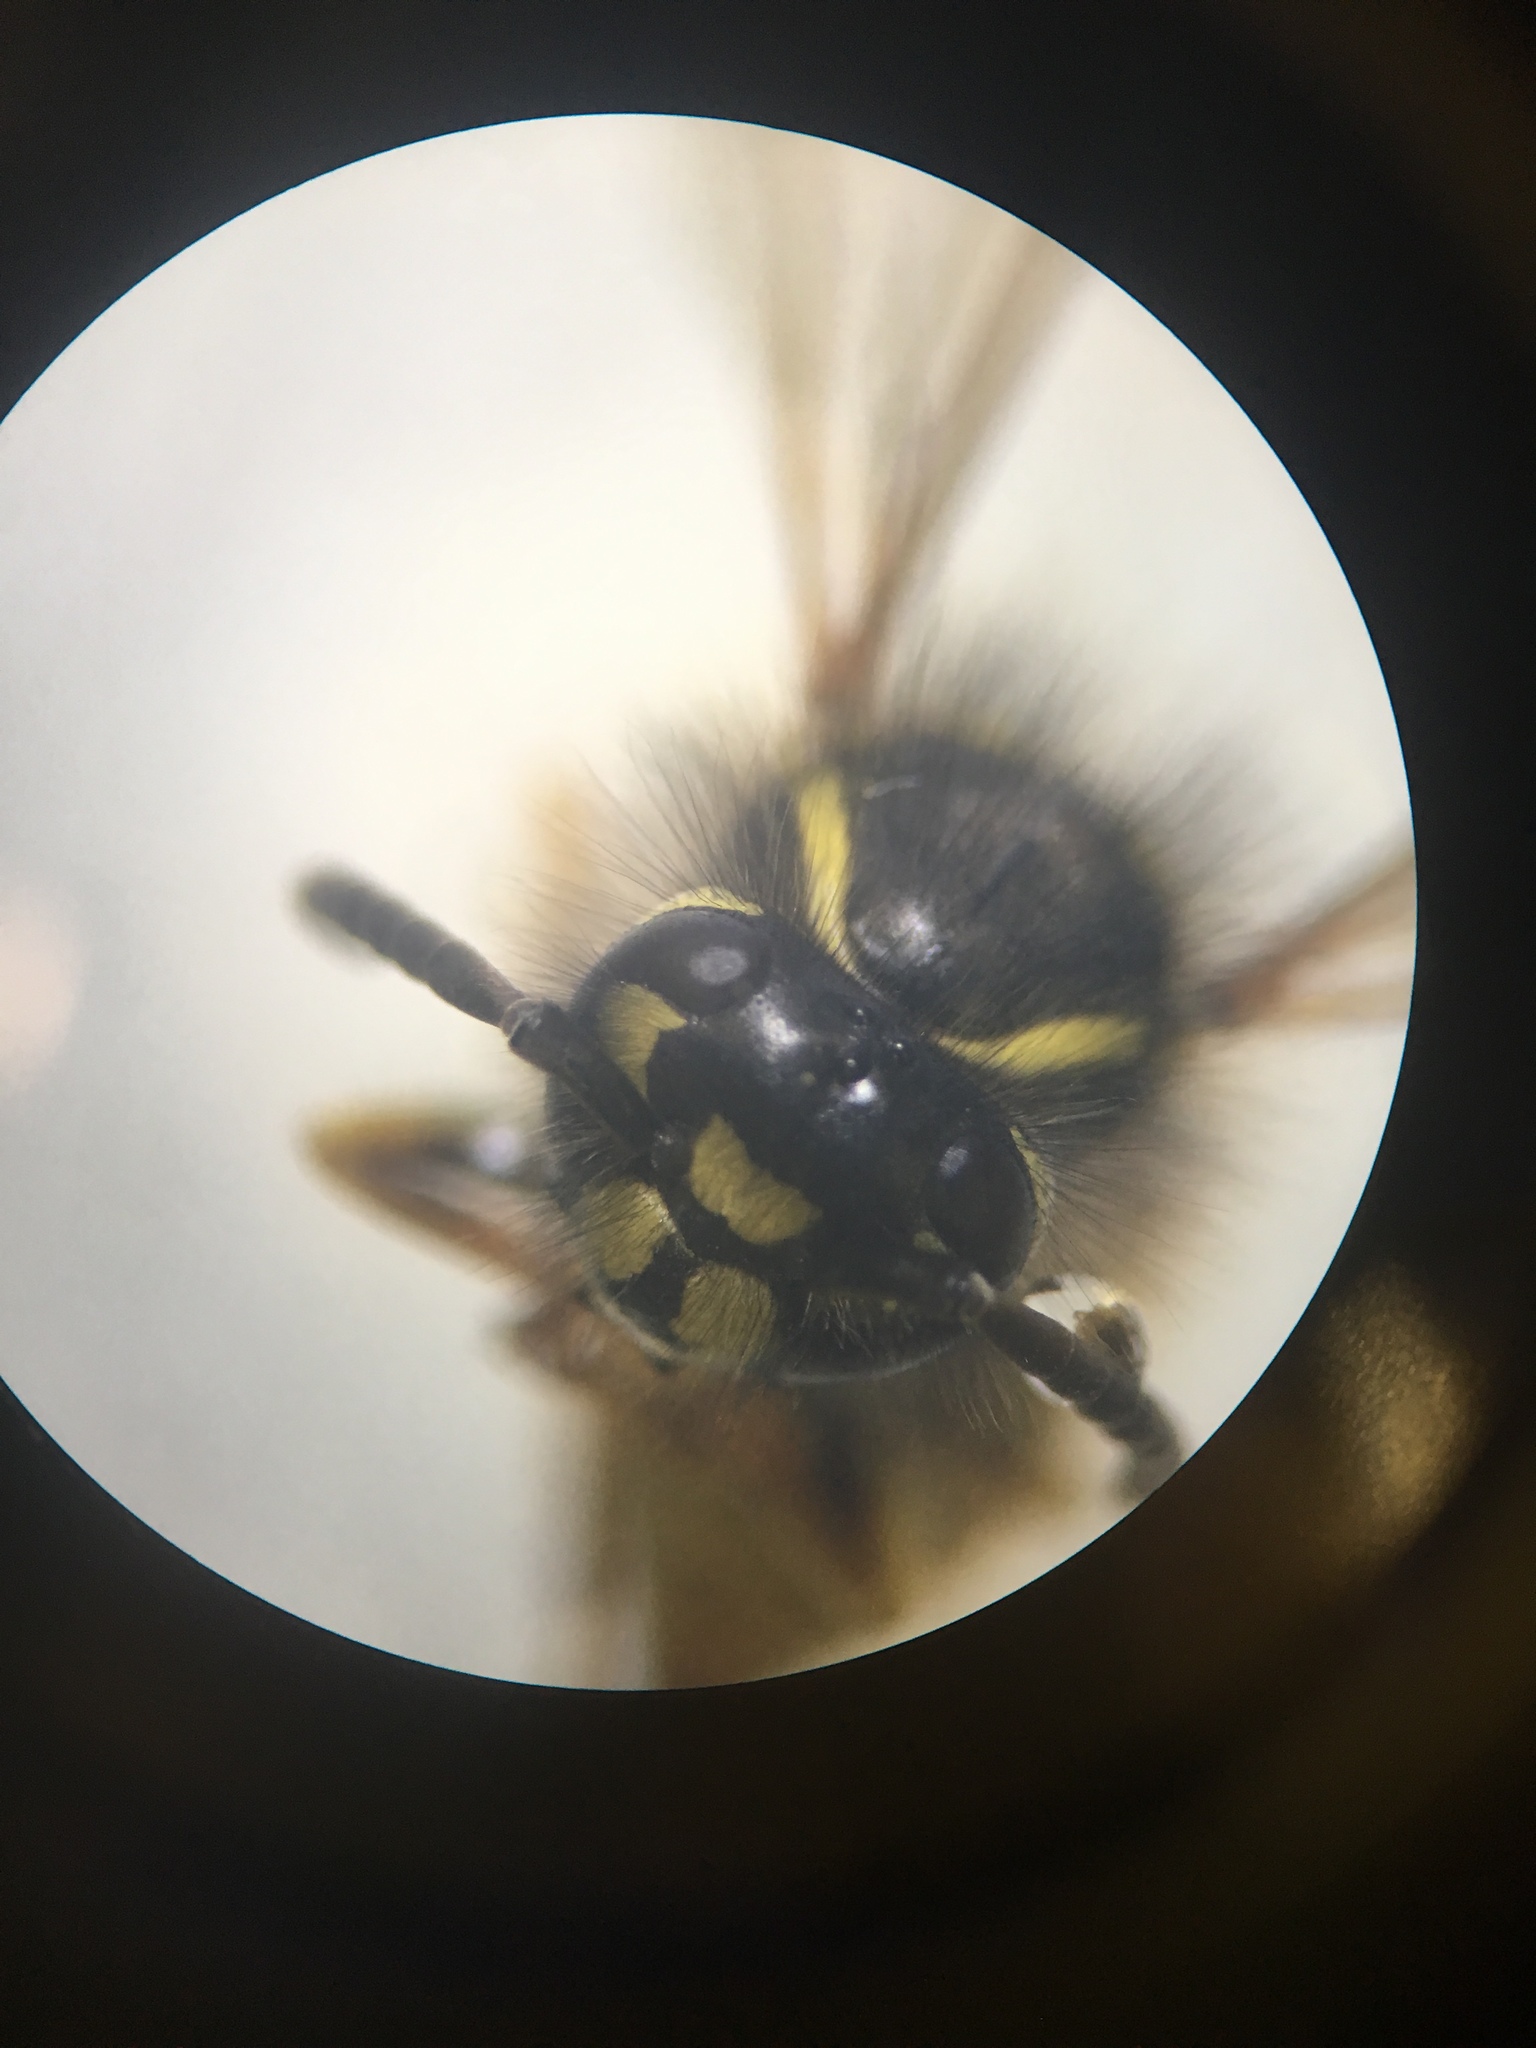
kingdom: Animalia
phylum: Arthropoda
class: Insecta
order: Hymenoptera
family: Vespidae
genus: Vespula
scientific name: Vespula vulgaris
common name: Common wasp
